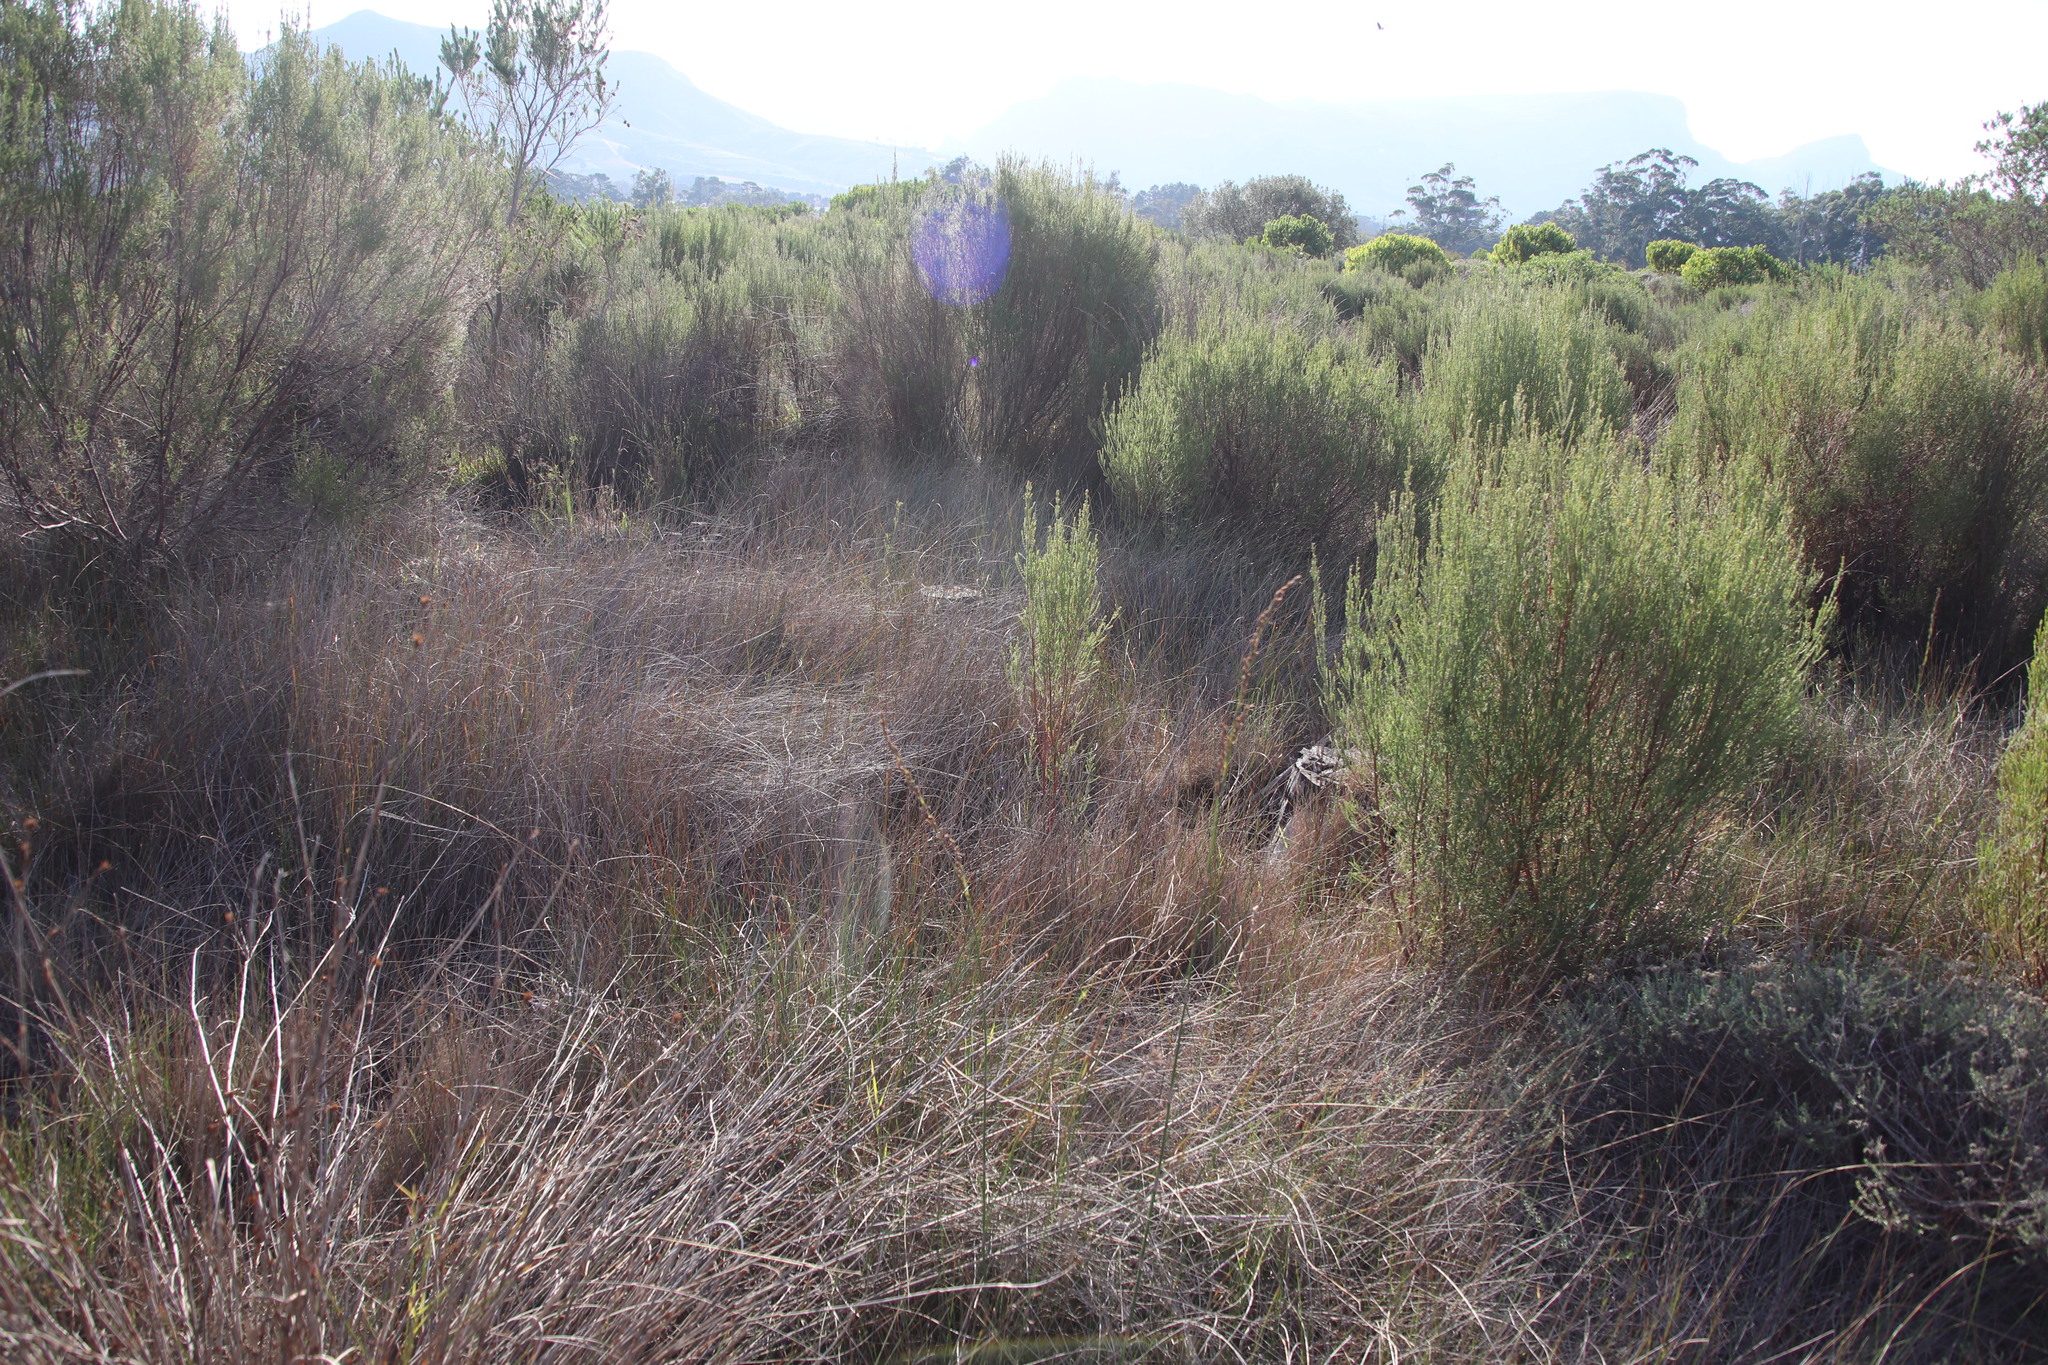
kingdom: Plantae
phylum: Tracheophyta
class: Liliopsida
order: Poales
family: Cyperaceae
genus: Ficinia
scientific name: Ficinia indica
